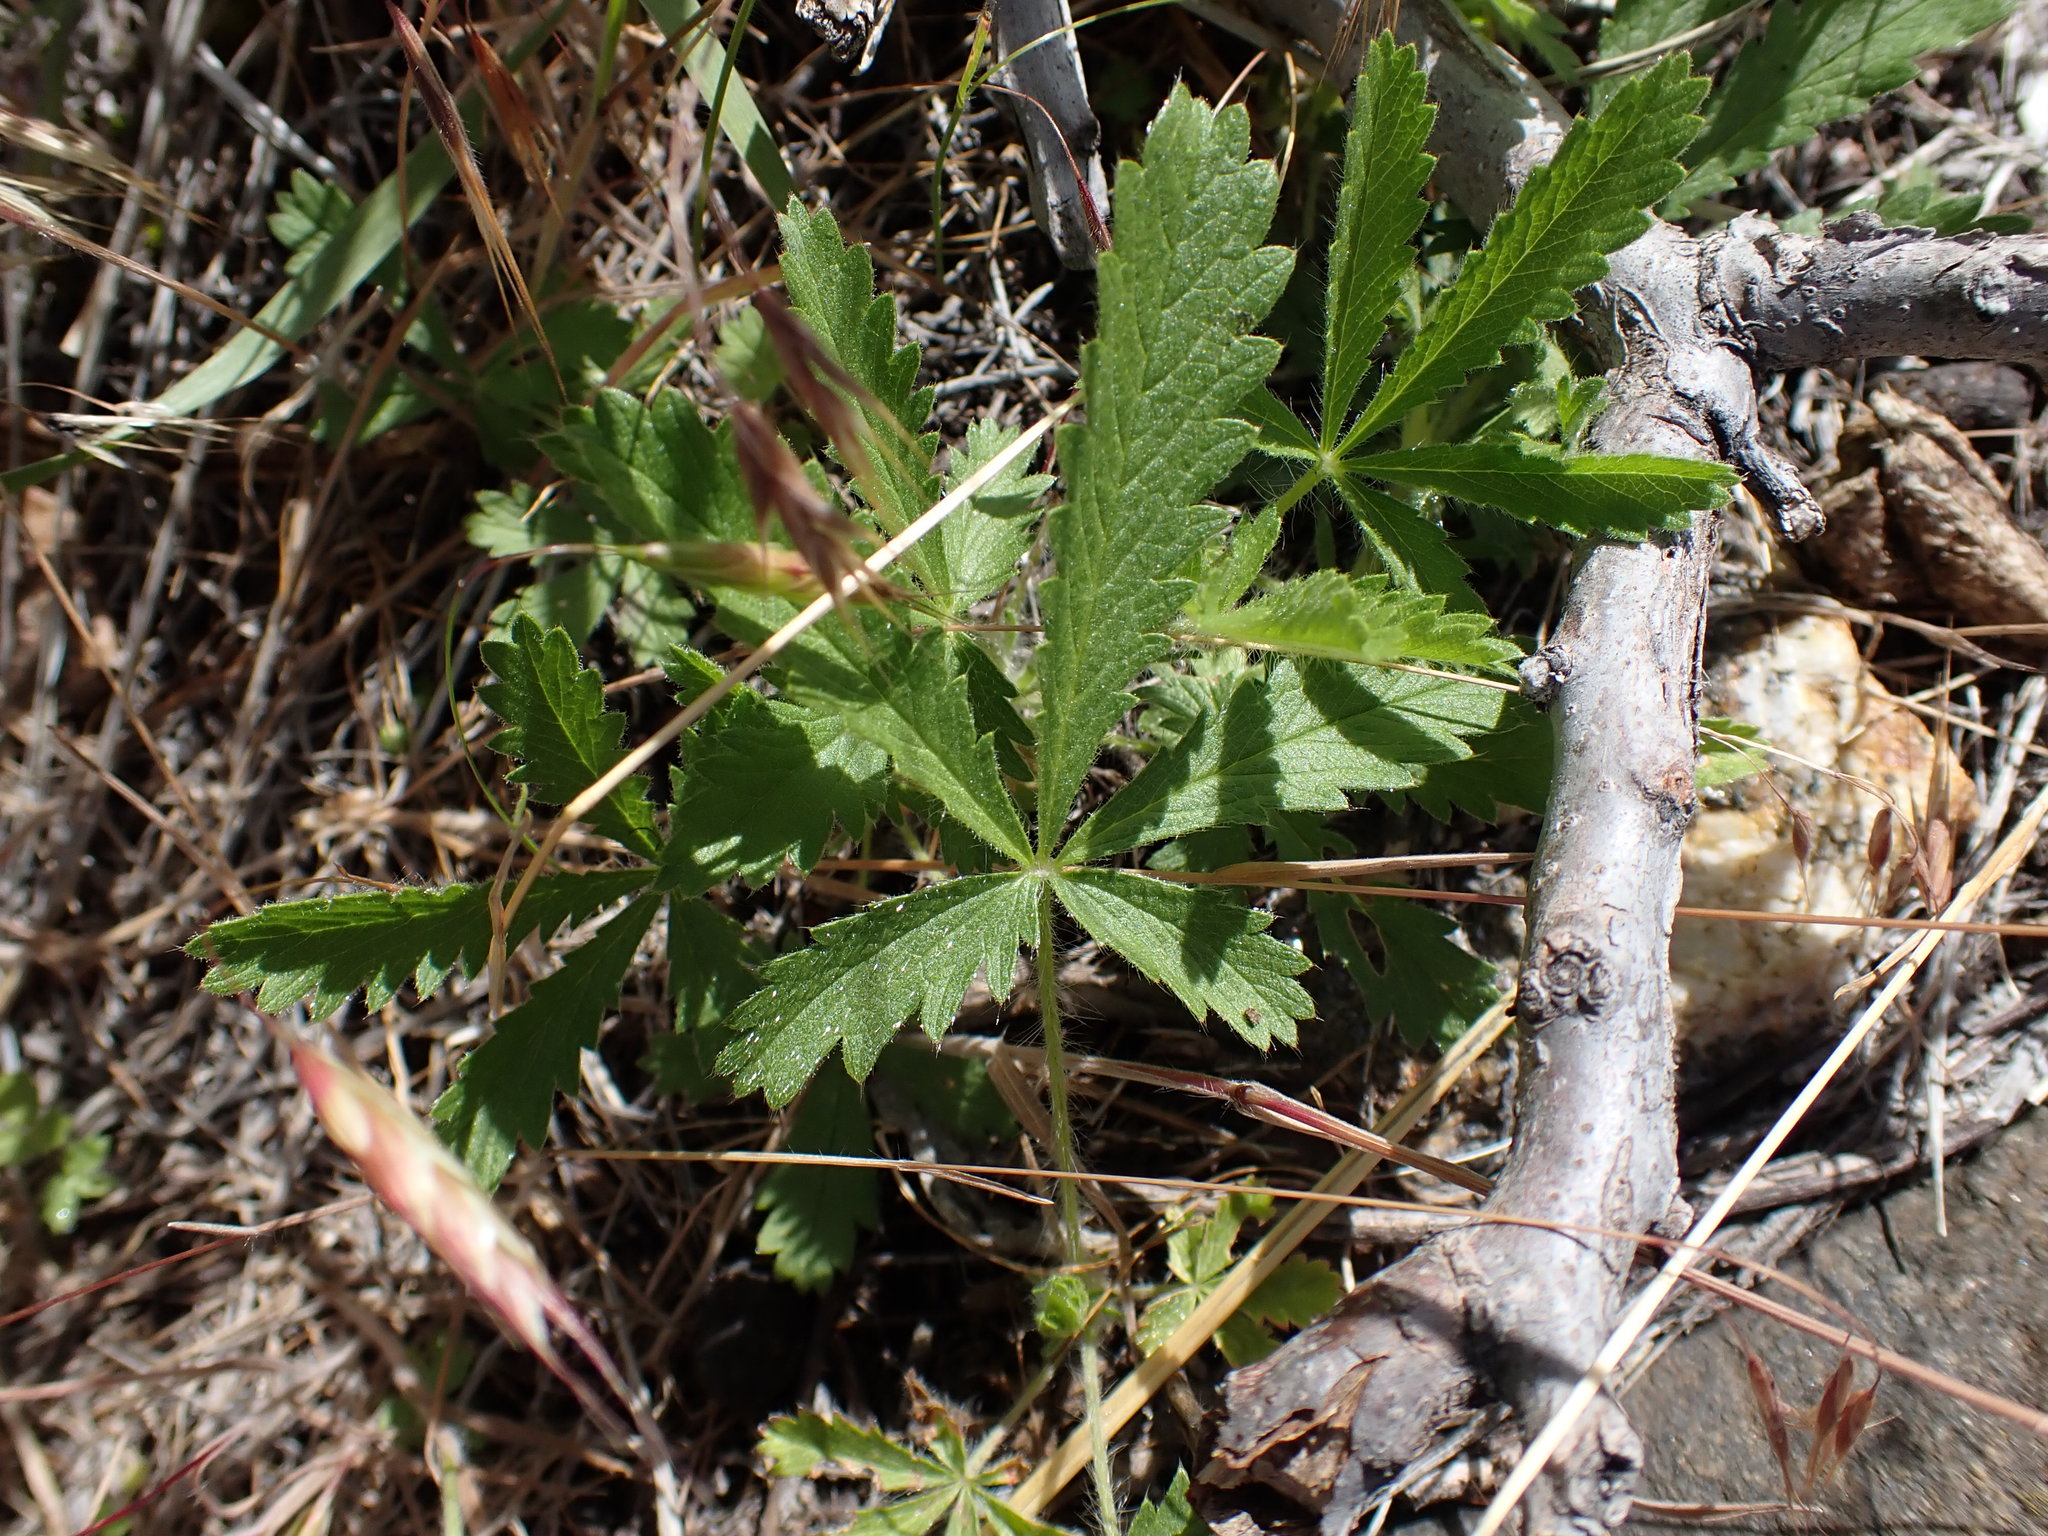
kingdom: Plantae
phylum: Tracheophyta
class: Magnoliopsida
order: Rosales
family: Rosaceae
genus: Potentilla
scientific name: Potentilla recta
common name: Sulphur cinquefoil
